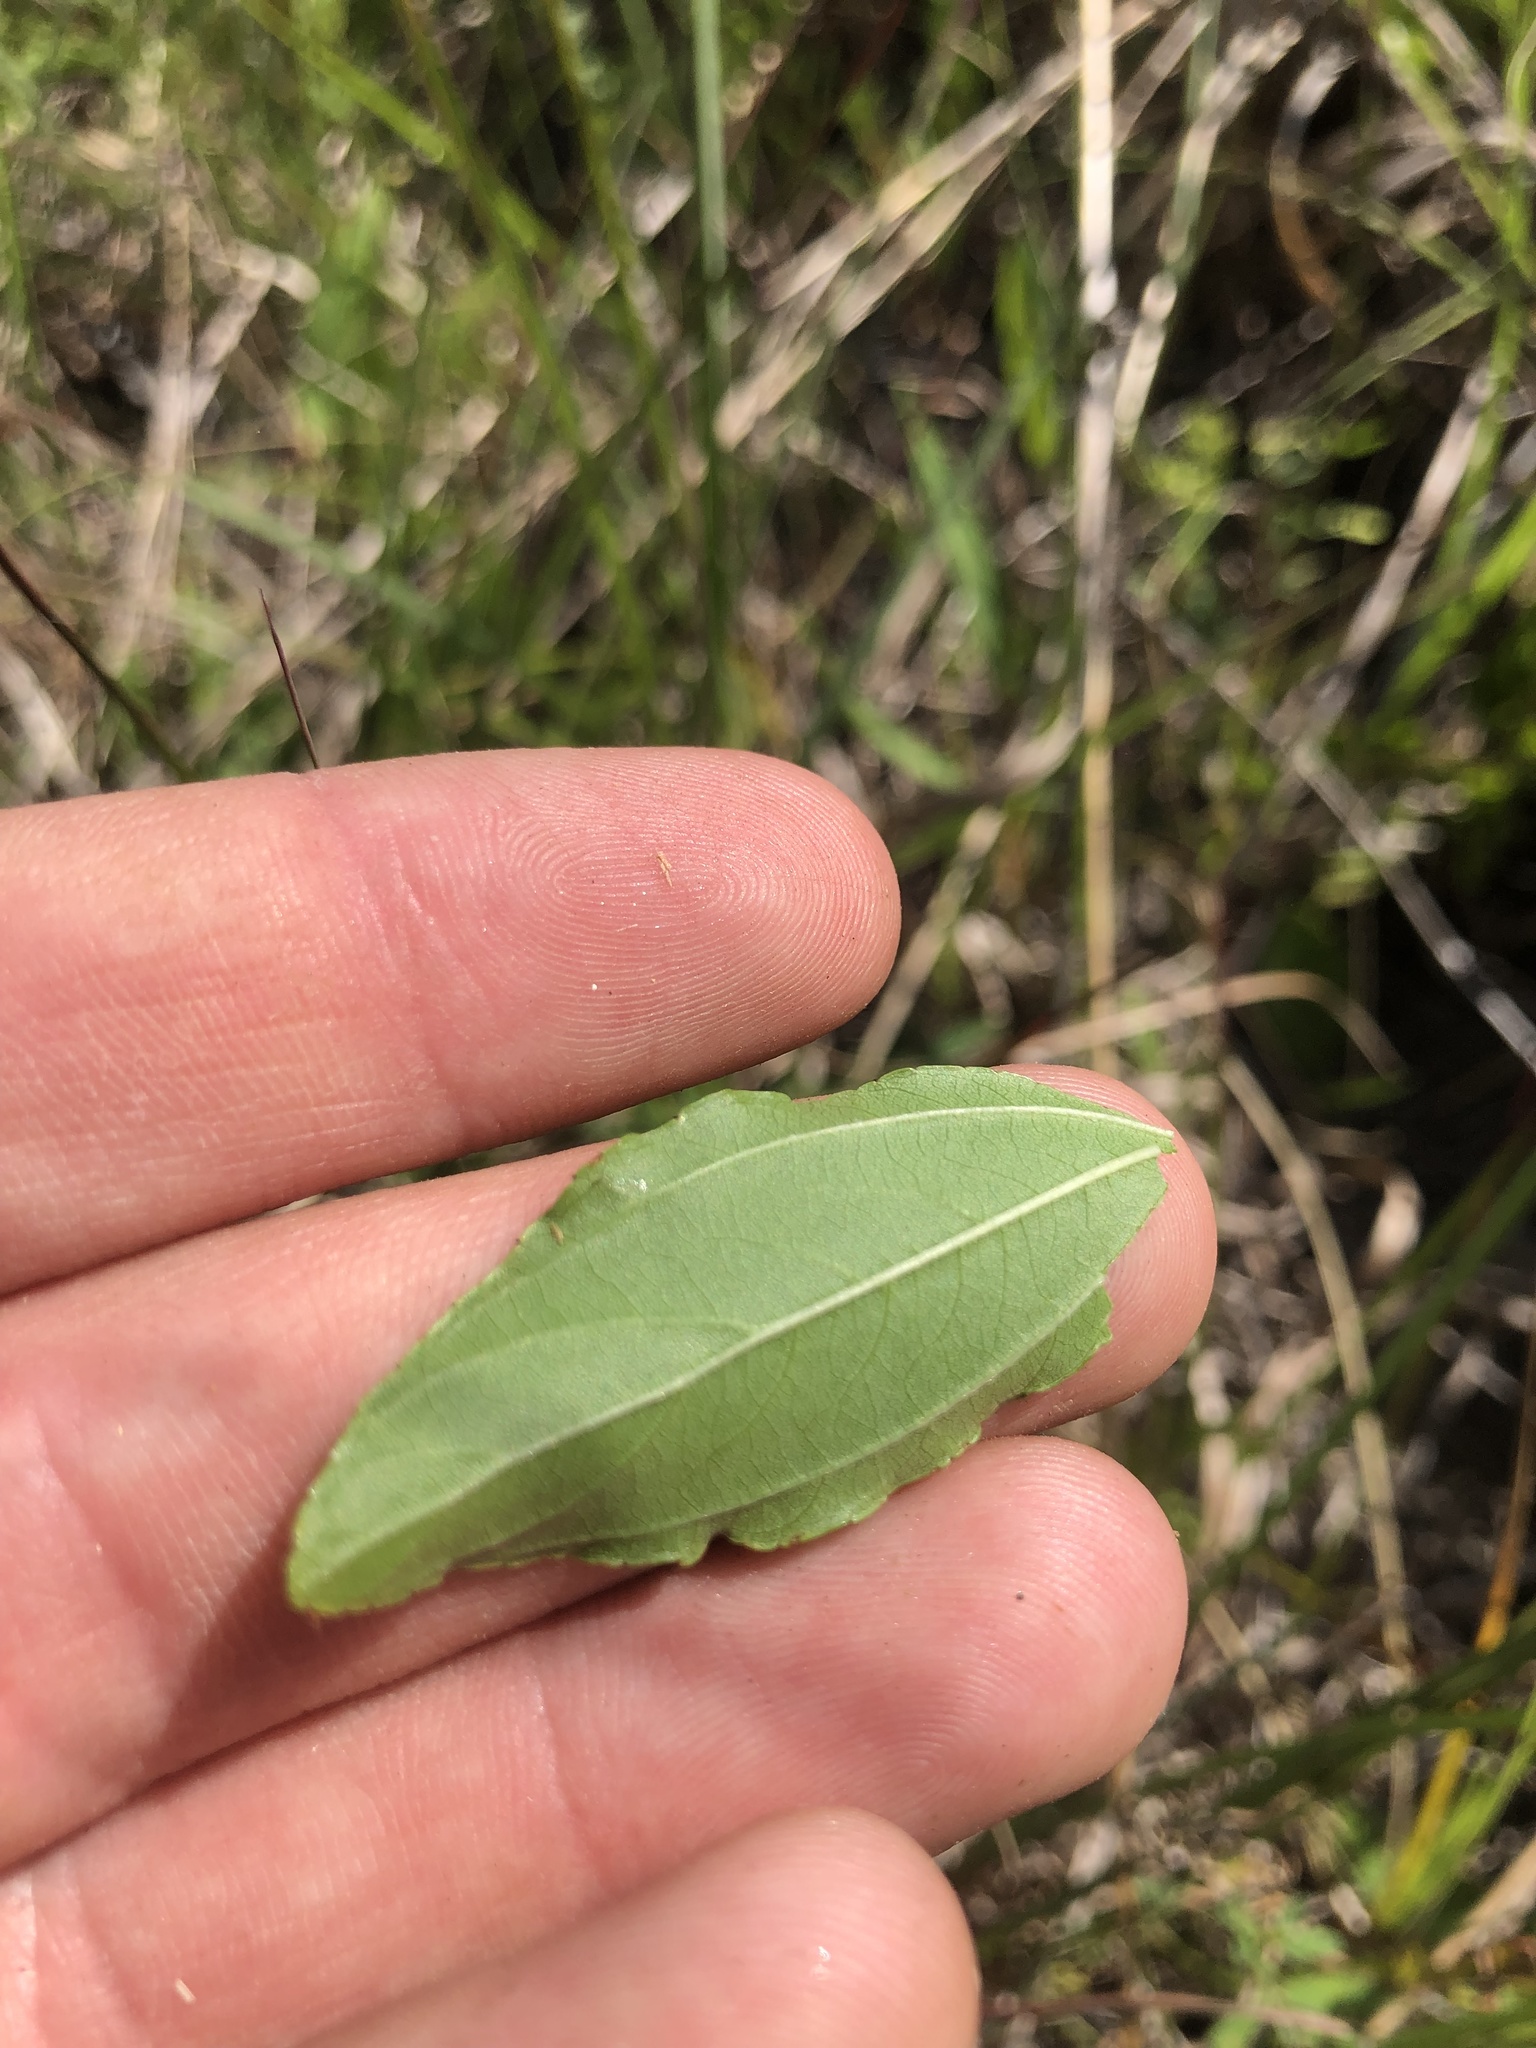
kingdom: Plantae
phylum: Tracheophyta
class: Magnoliopsida
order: Rosales
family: Rhamnaceae
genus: Ceanothus
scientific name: Ceanothus americanus
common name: Redroot
